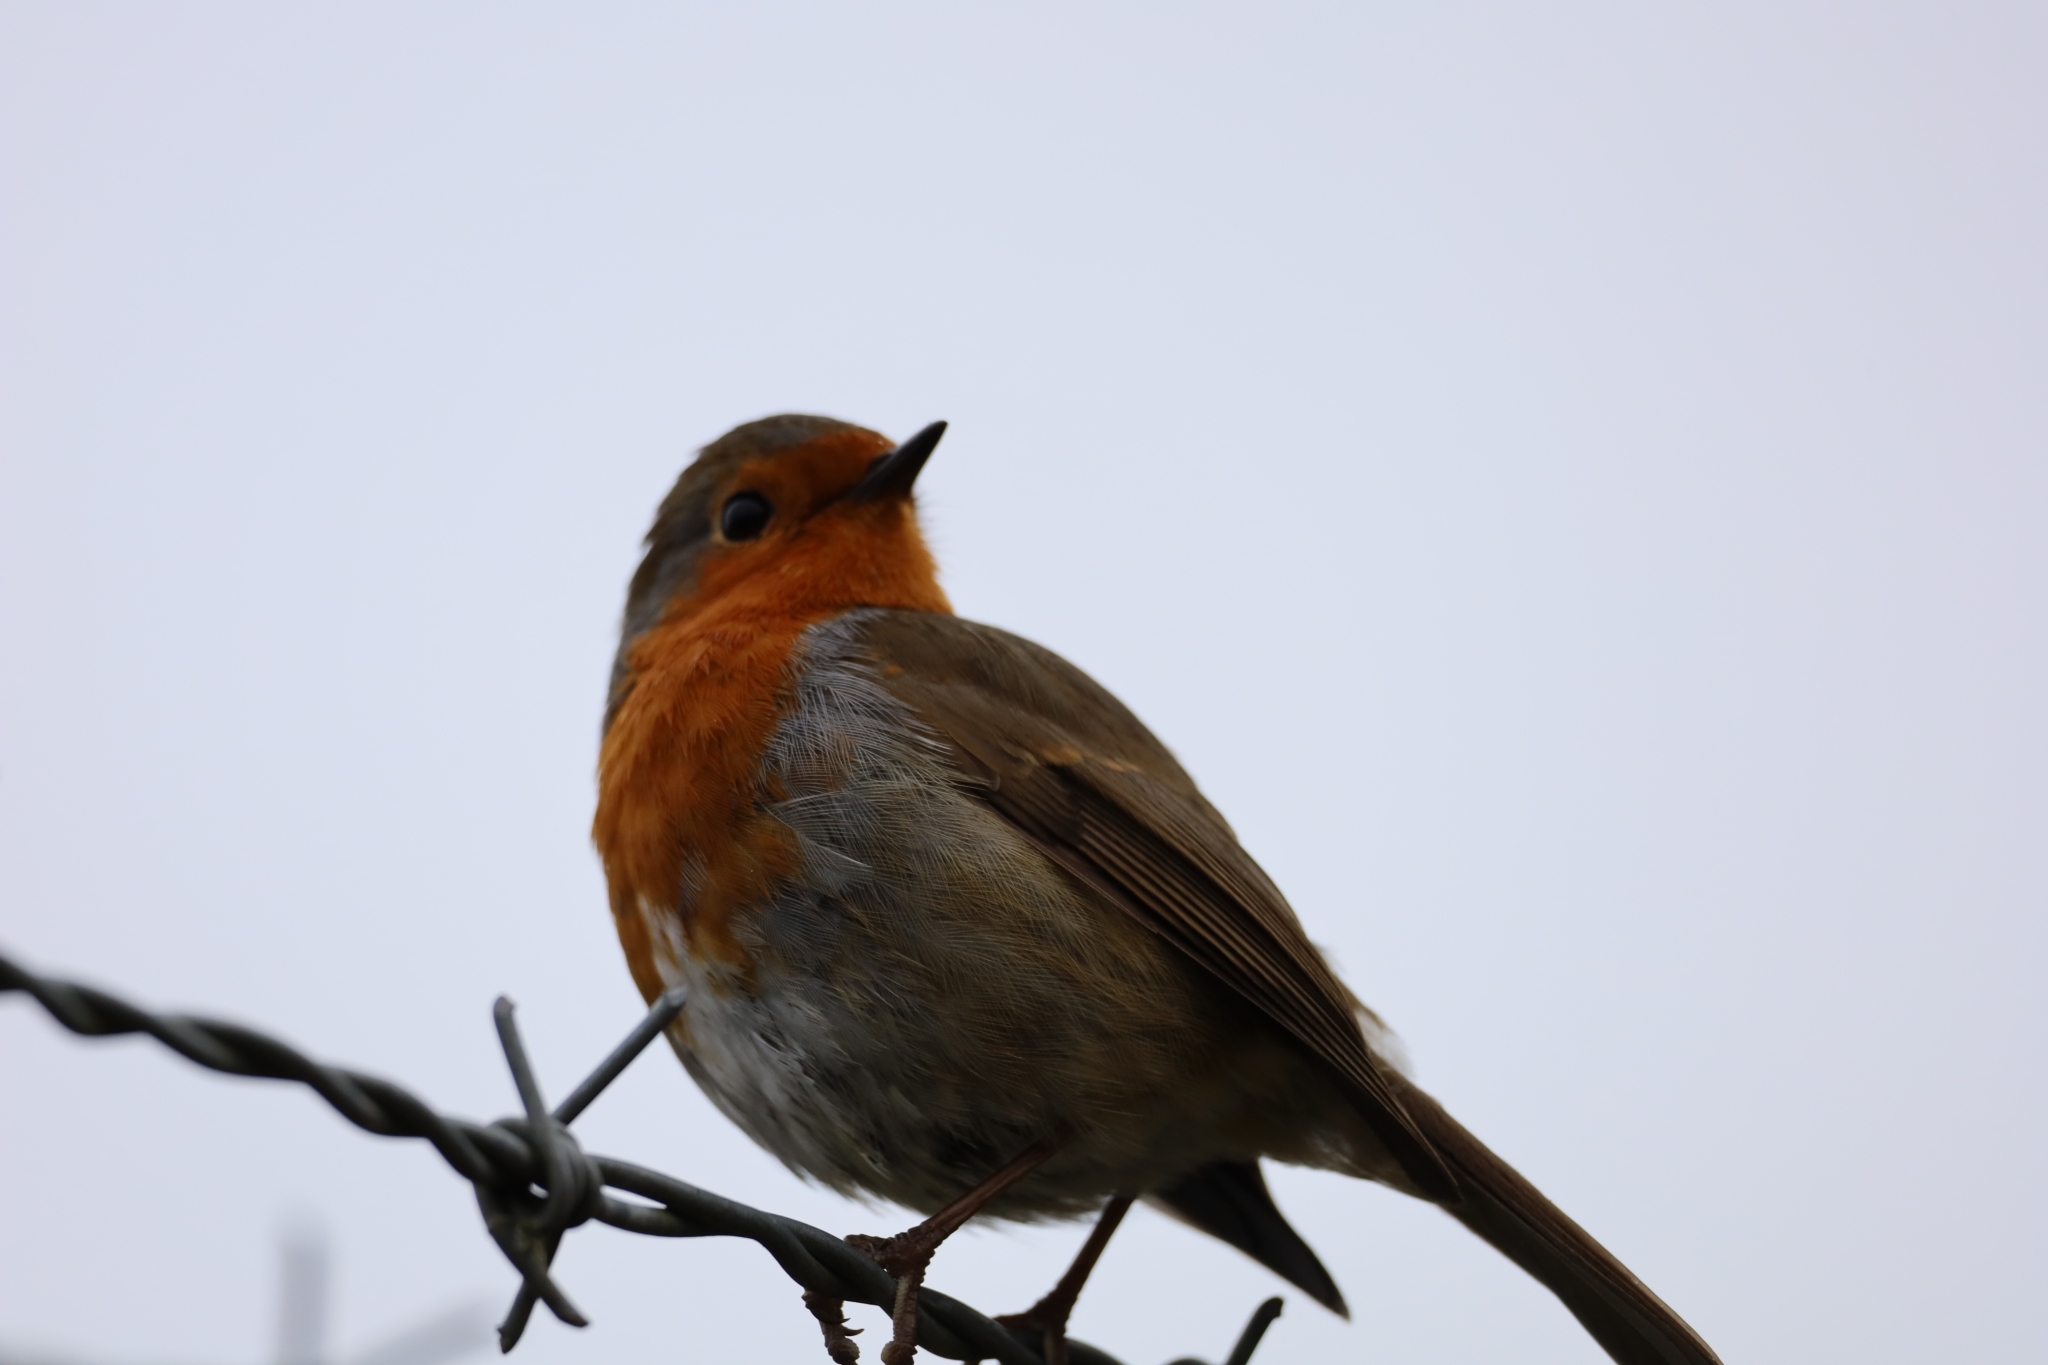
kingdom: Animalia
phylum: Chordata
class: Aves
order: Passeriformes
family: Muscicapidae
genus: Erithacus
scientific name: Erithacus rubecula
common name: European robin
